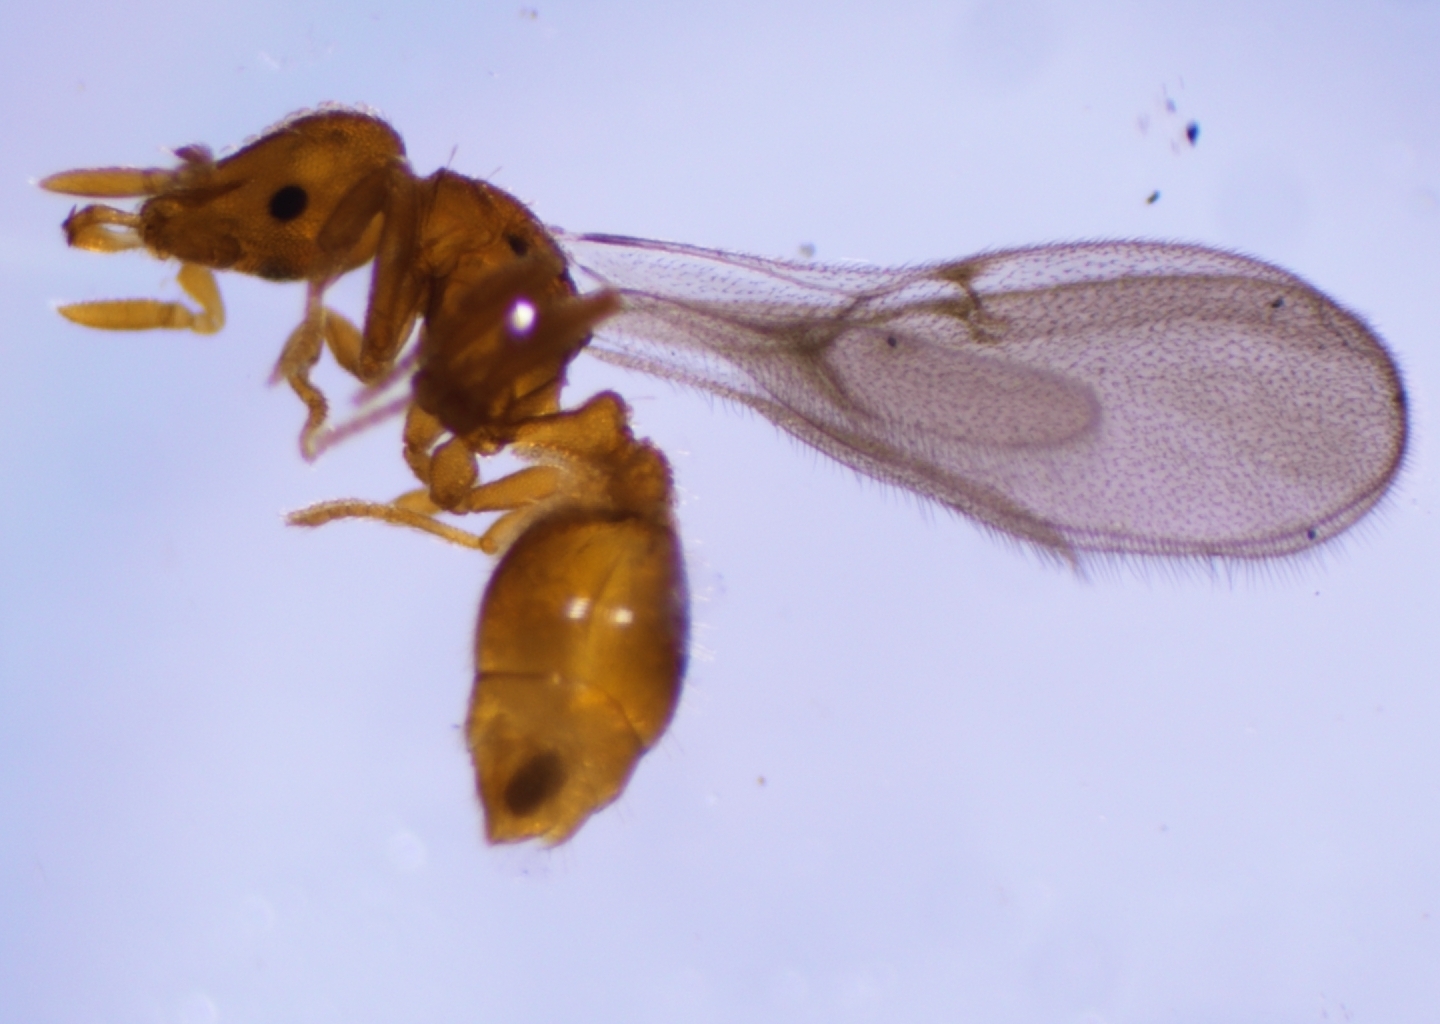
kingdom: Animalia
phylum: Arthropoda
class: Insecta
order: Hymenoptera
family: Formicidae
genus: Pyramica
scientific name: Pyramica emmae
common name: Ant
